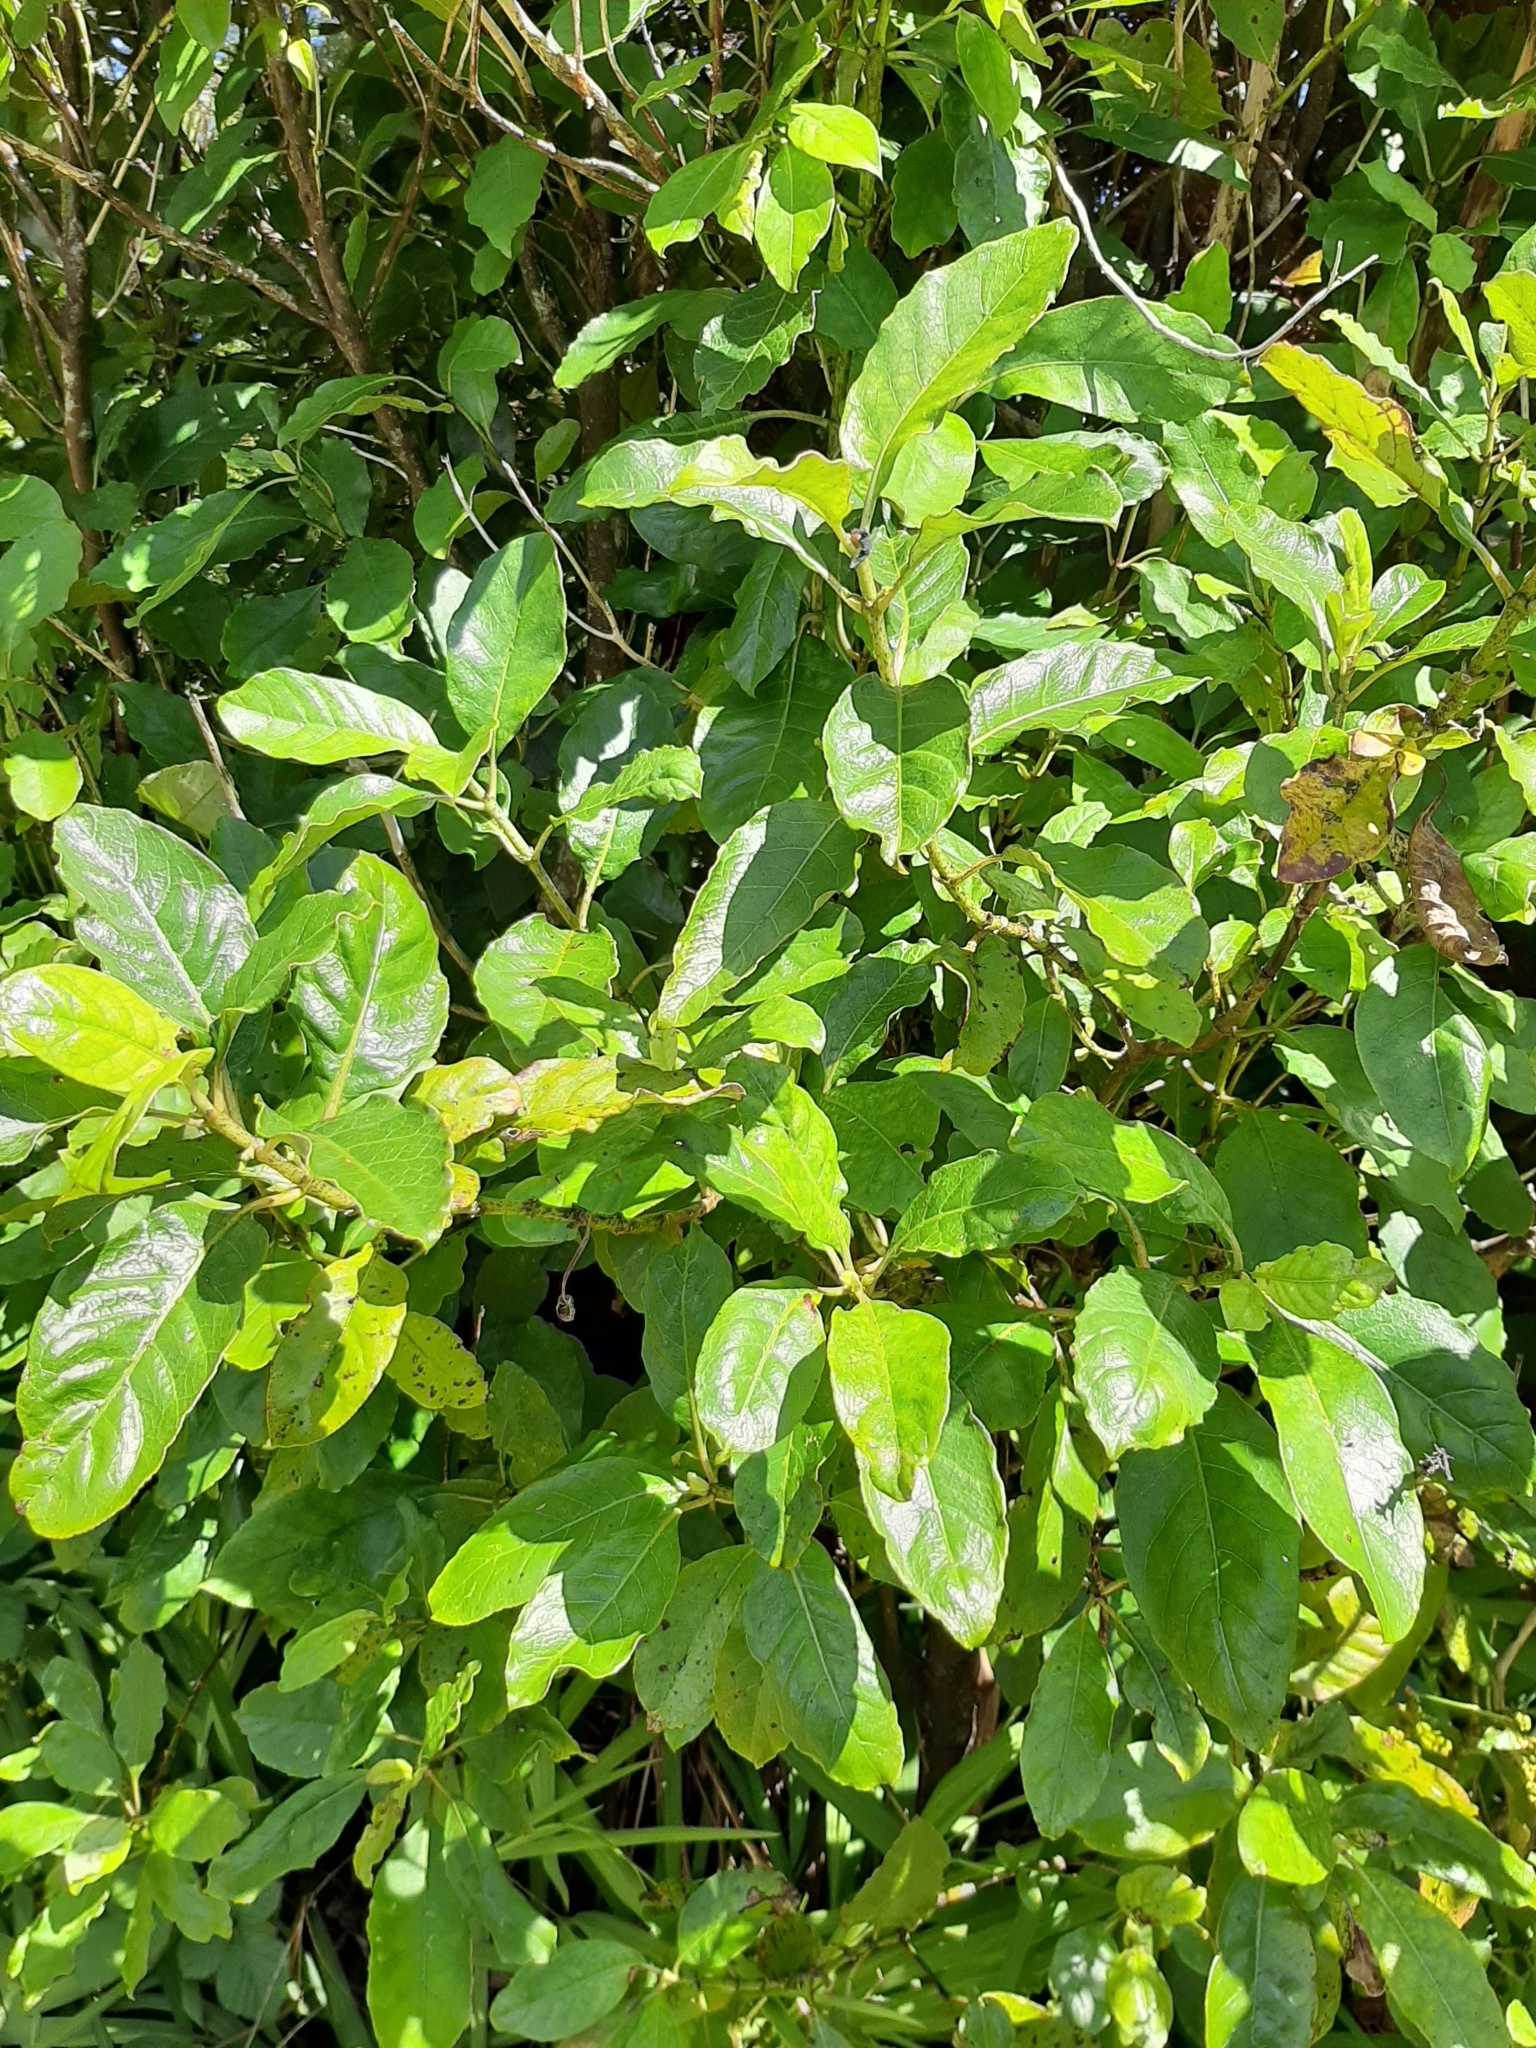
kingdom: Plantae
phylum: Tracheophyta
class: Magnoliopsida
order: Gentianales
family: Rubiaceae
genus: Coprosma
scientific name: Coprosma autumnalis
